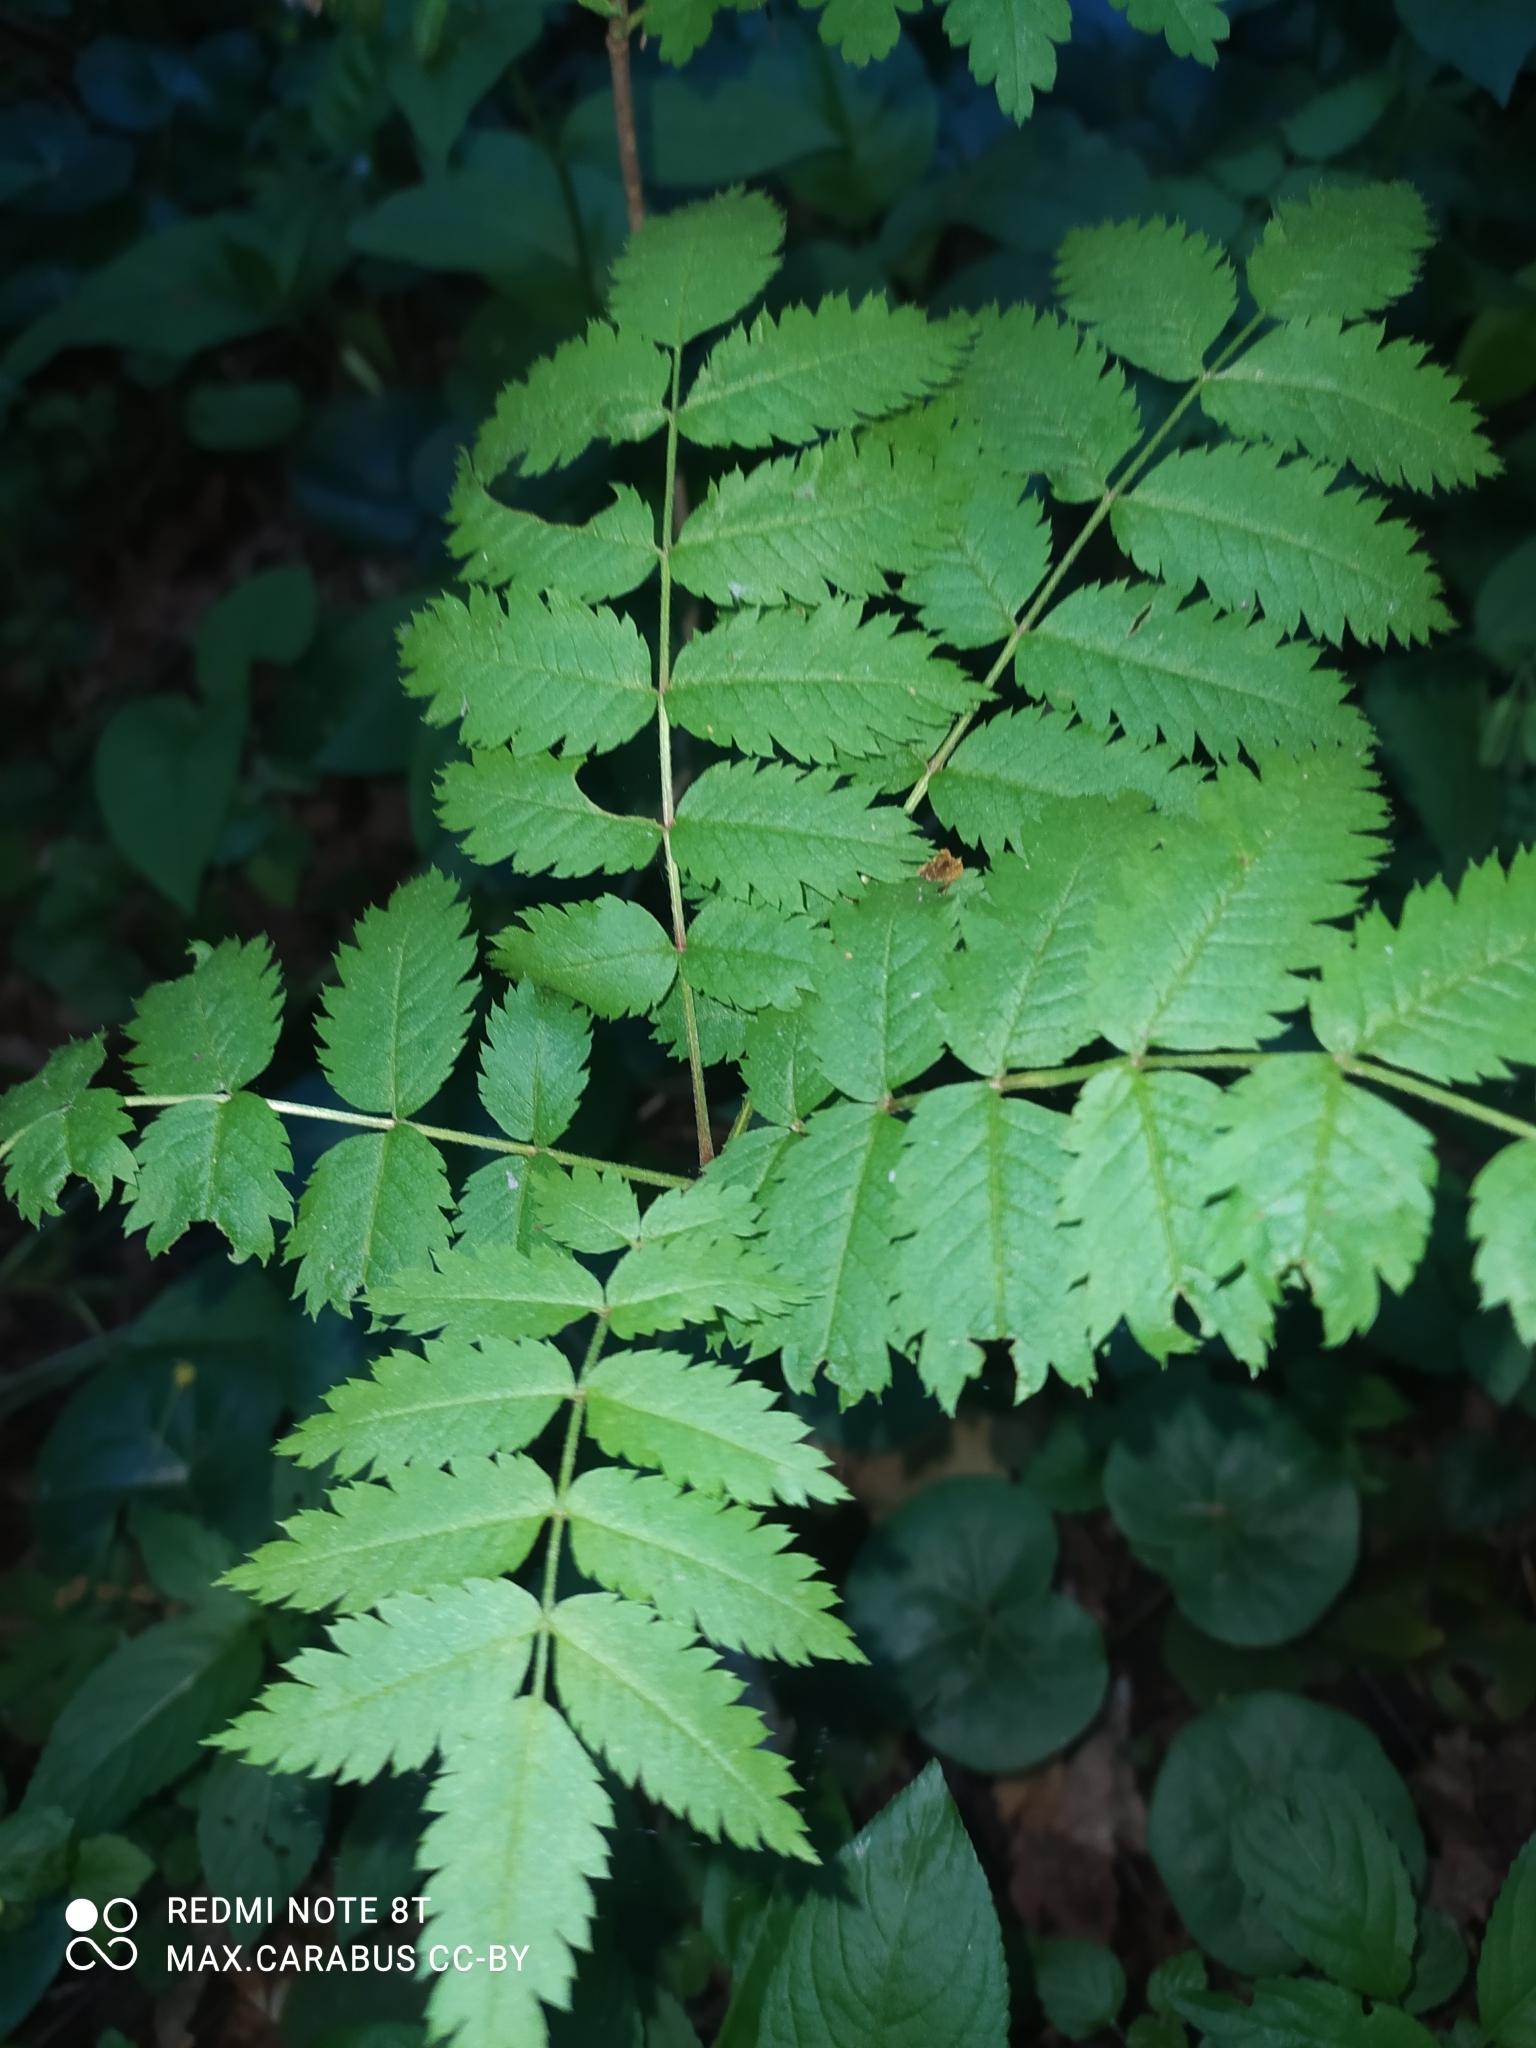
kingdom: Plantae
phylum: Tracheophyta
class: Magnoliopsida
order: Rosales
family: Rosaceae
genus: Sorbus
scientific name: Sorbus aucuparia
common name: Rowan
